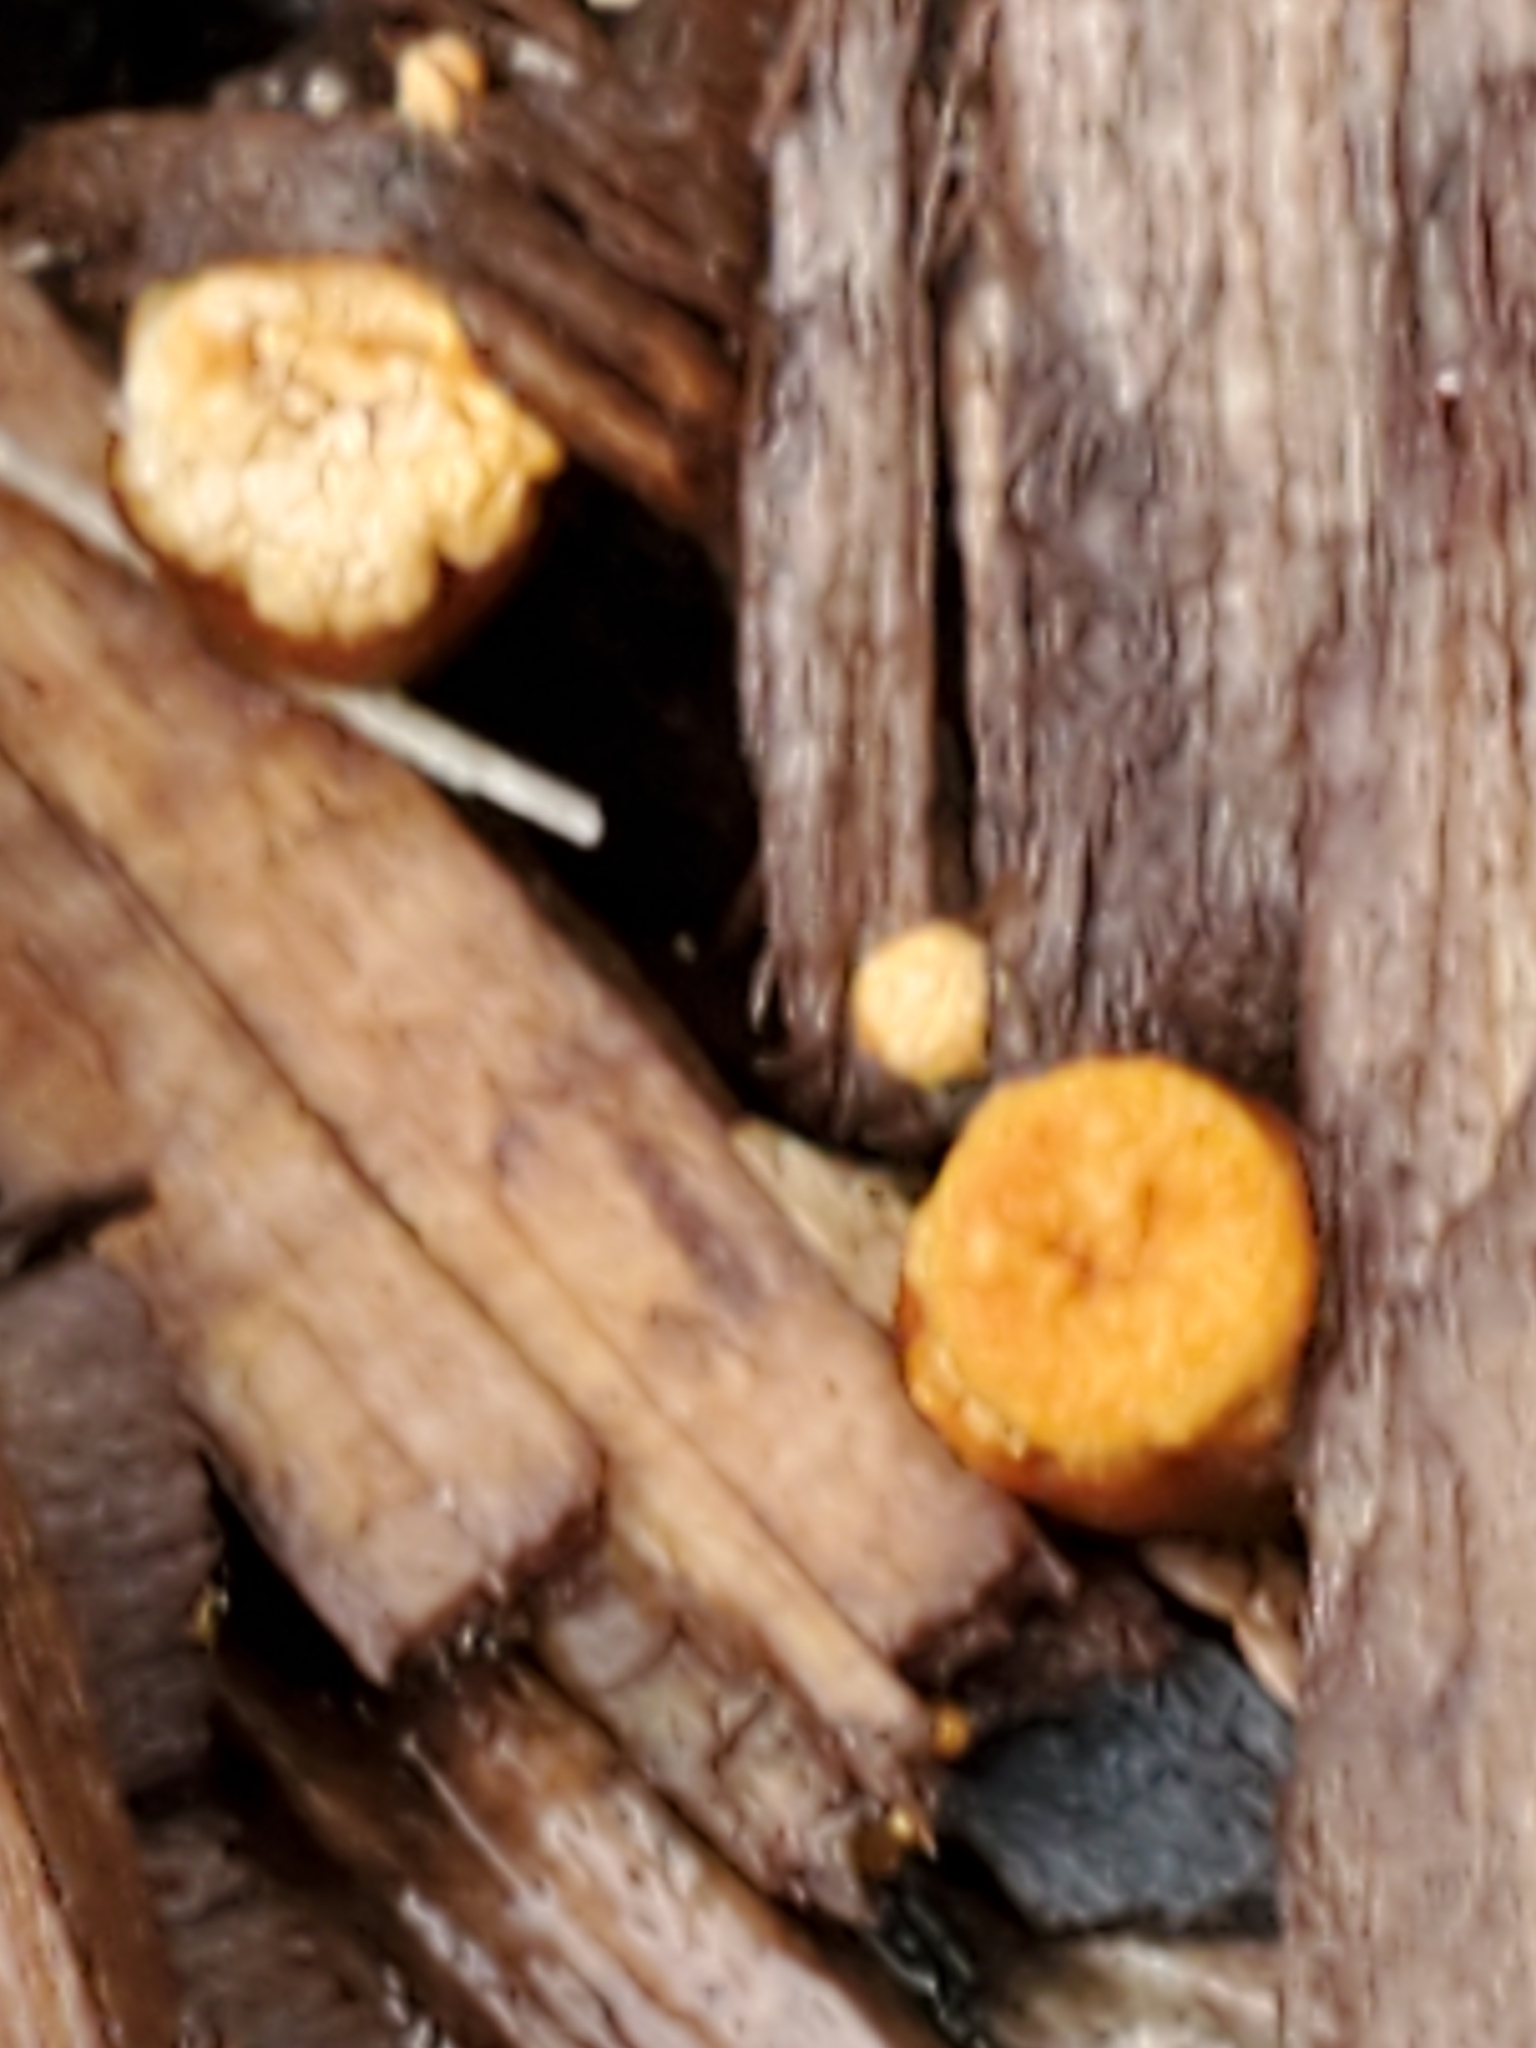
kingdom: Fungi
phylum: Basidiomycota
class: Agaricomycetes
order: Agaricales
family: Agaricaceae
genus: Cyathus
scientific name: Cyathus olla
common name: Field bird's nest
